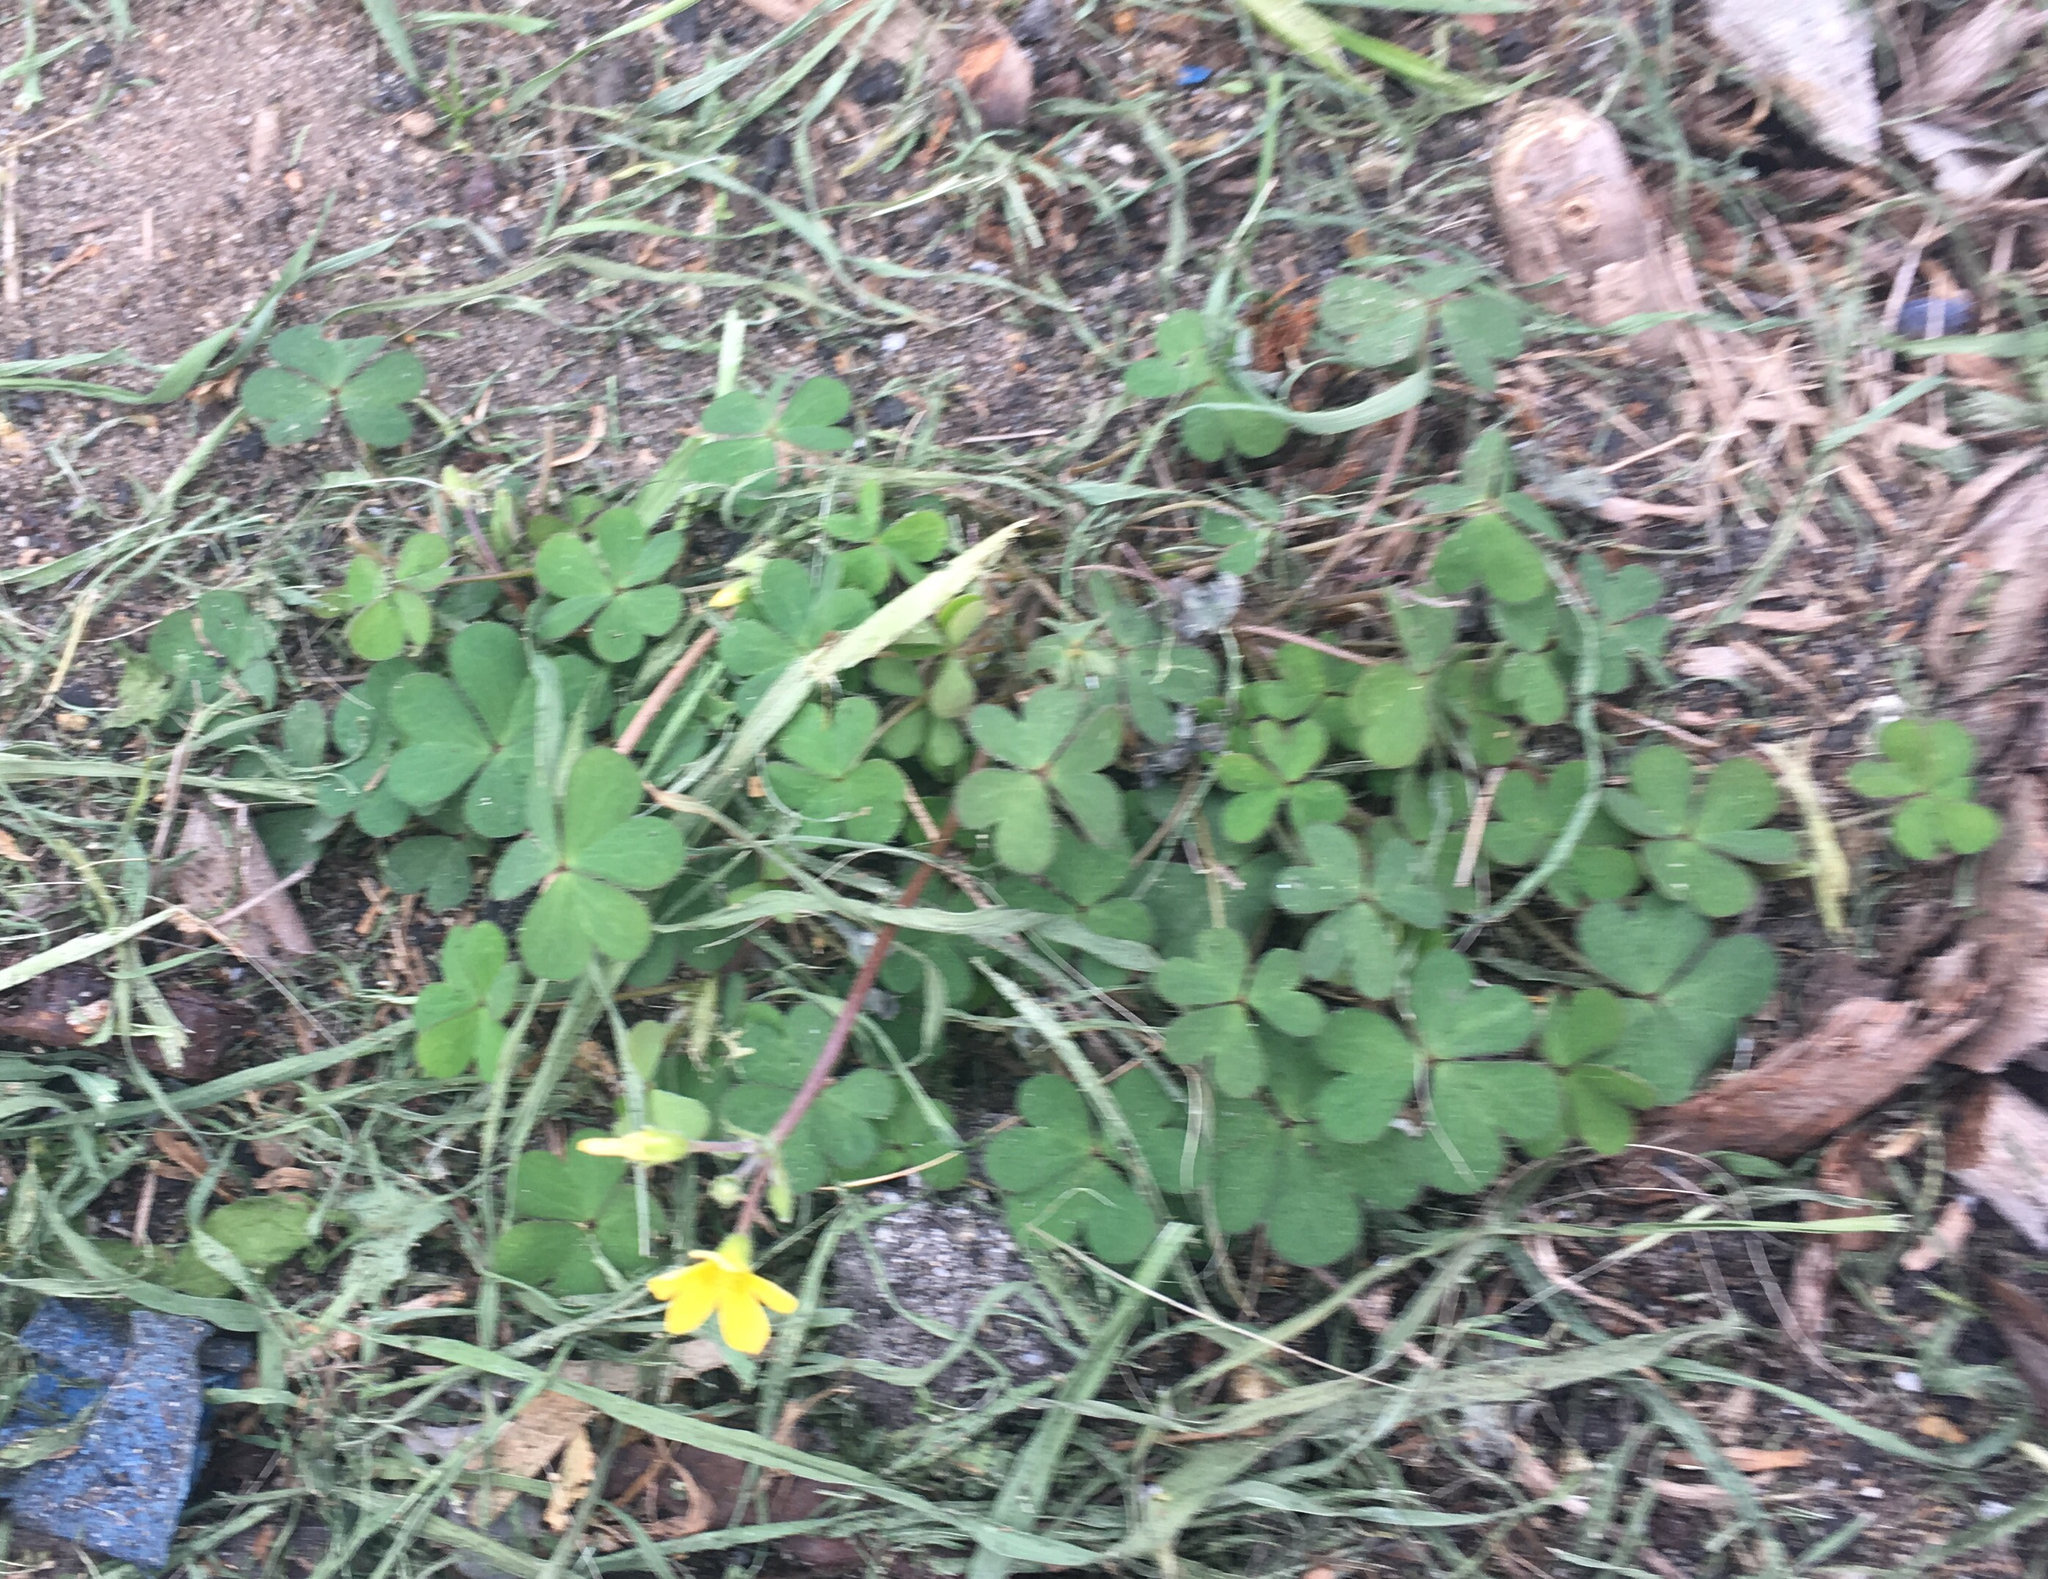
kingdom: Plantae
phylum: Tracheophyta
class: Magnoliopsida
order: Oxalidales
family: Oxalidaceae
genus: Oxalis
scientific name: Oxalis corniculata
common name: Procumbent yellow-sorrel
